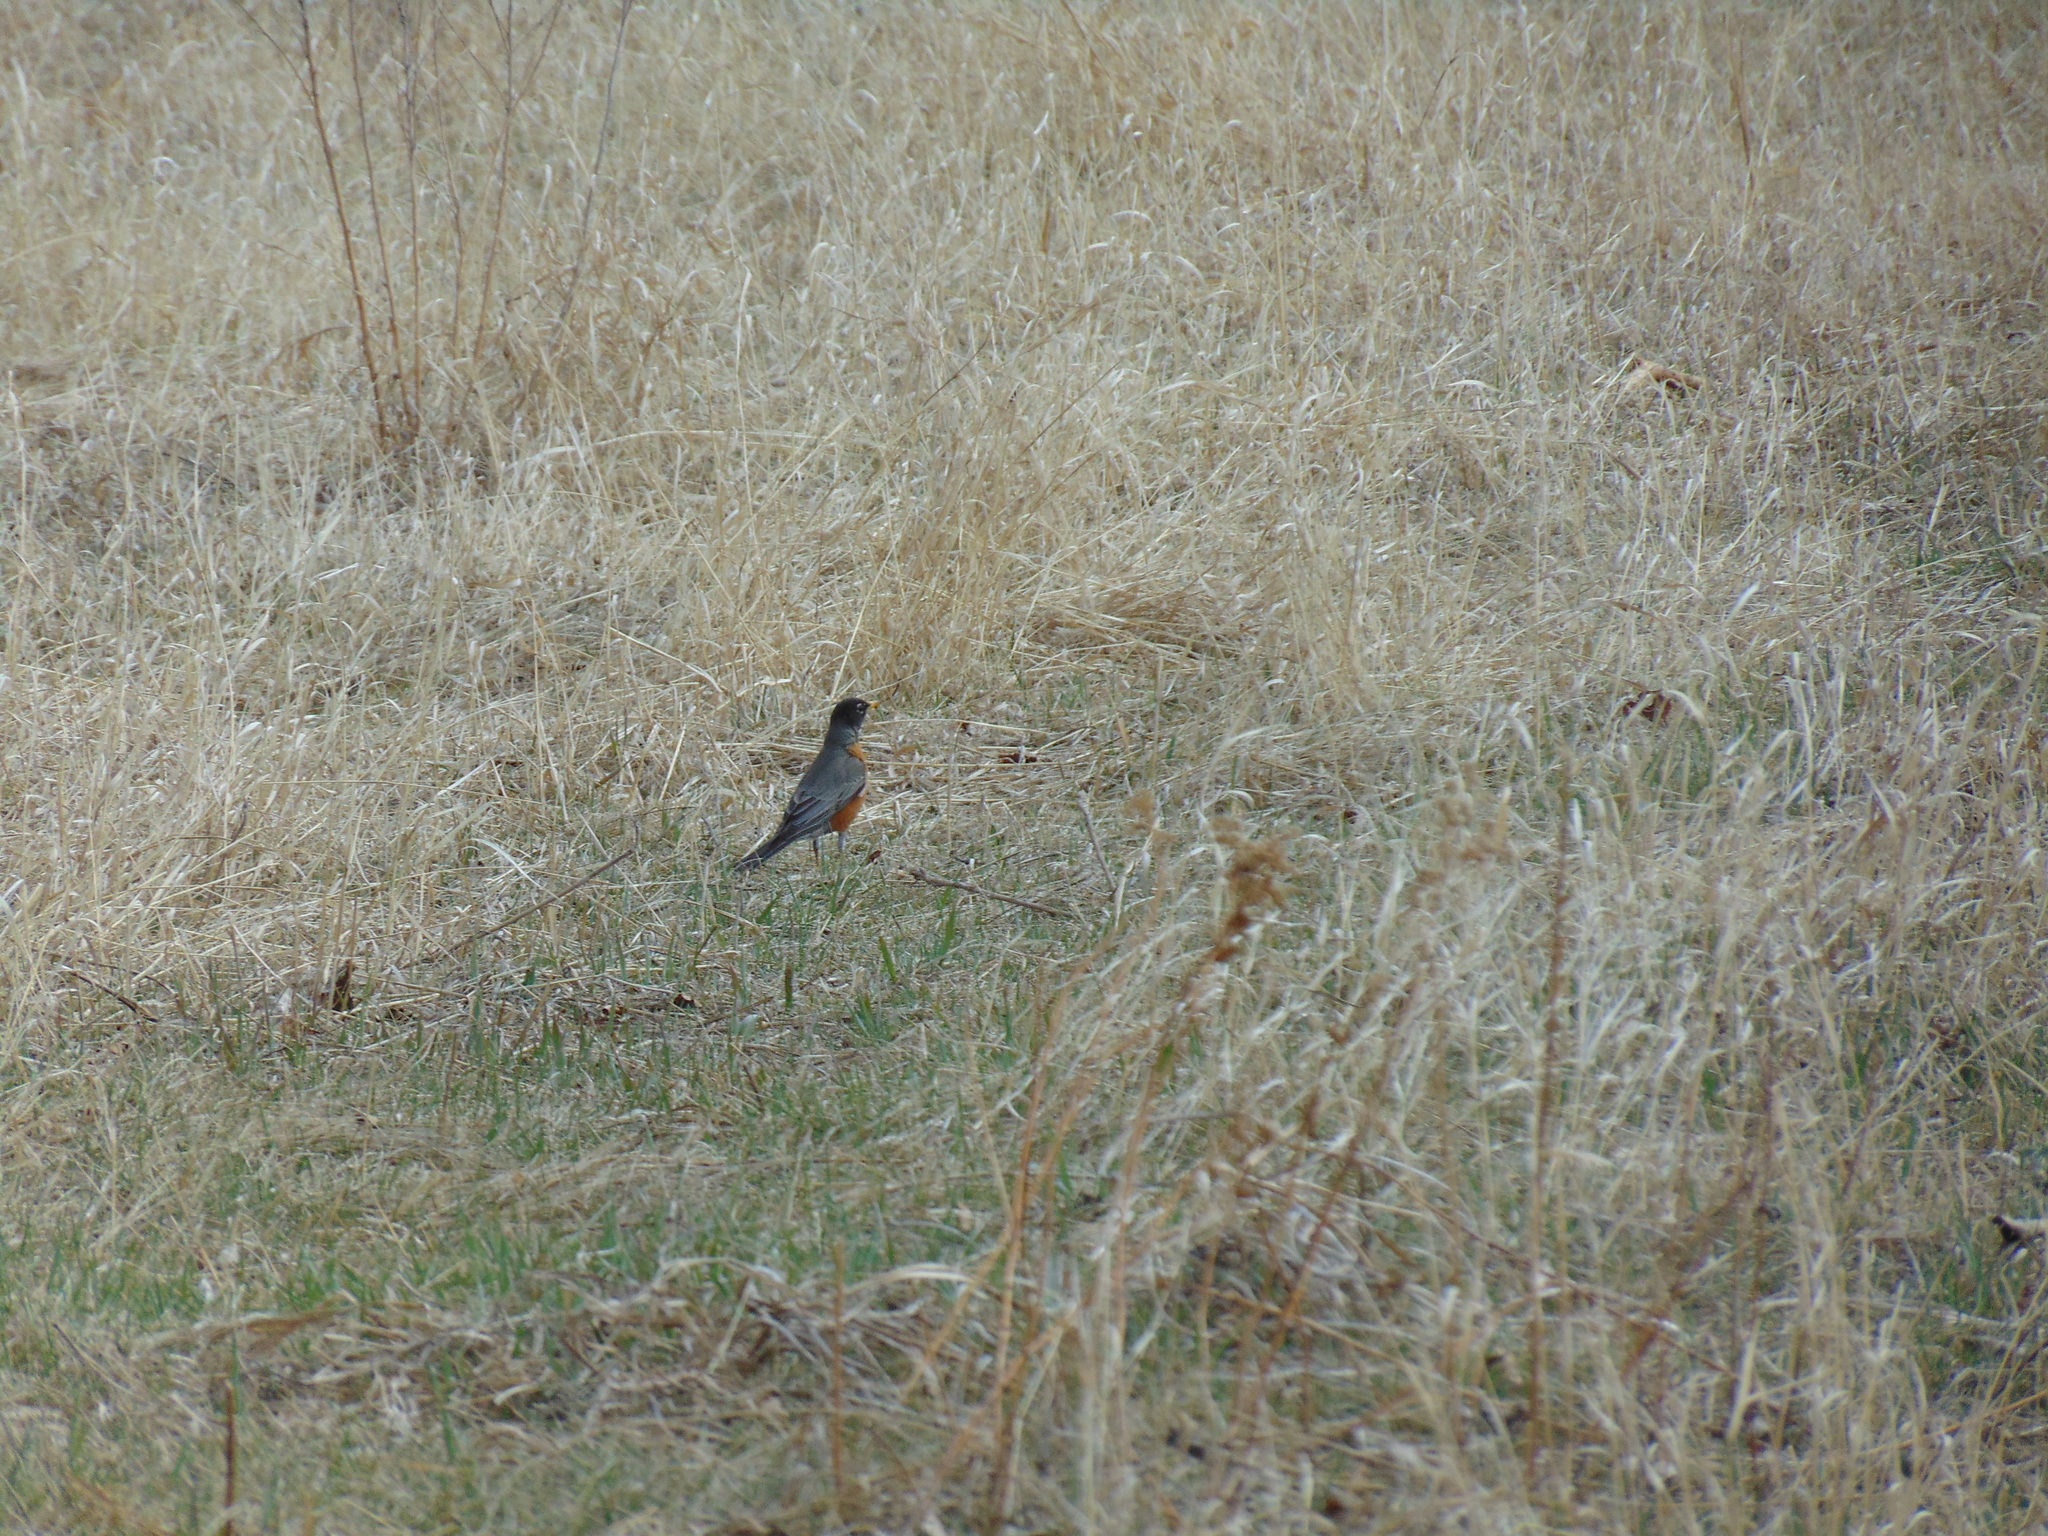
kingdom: Animalia
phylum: Chordata
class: Aves
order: Passeriformes
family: Turdidae
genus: Turdus
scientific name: Turdus migratorius
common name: American robin
